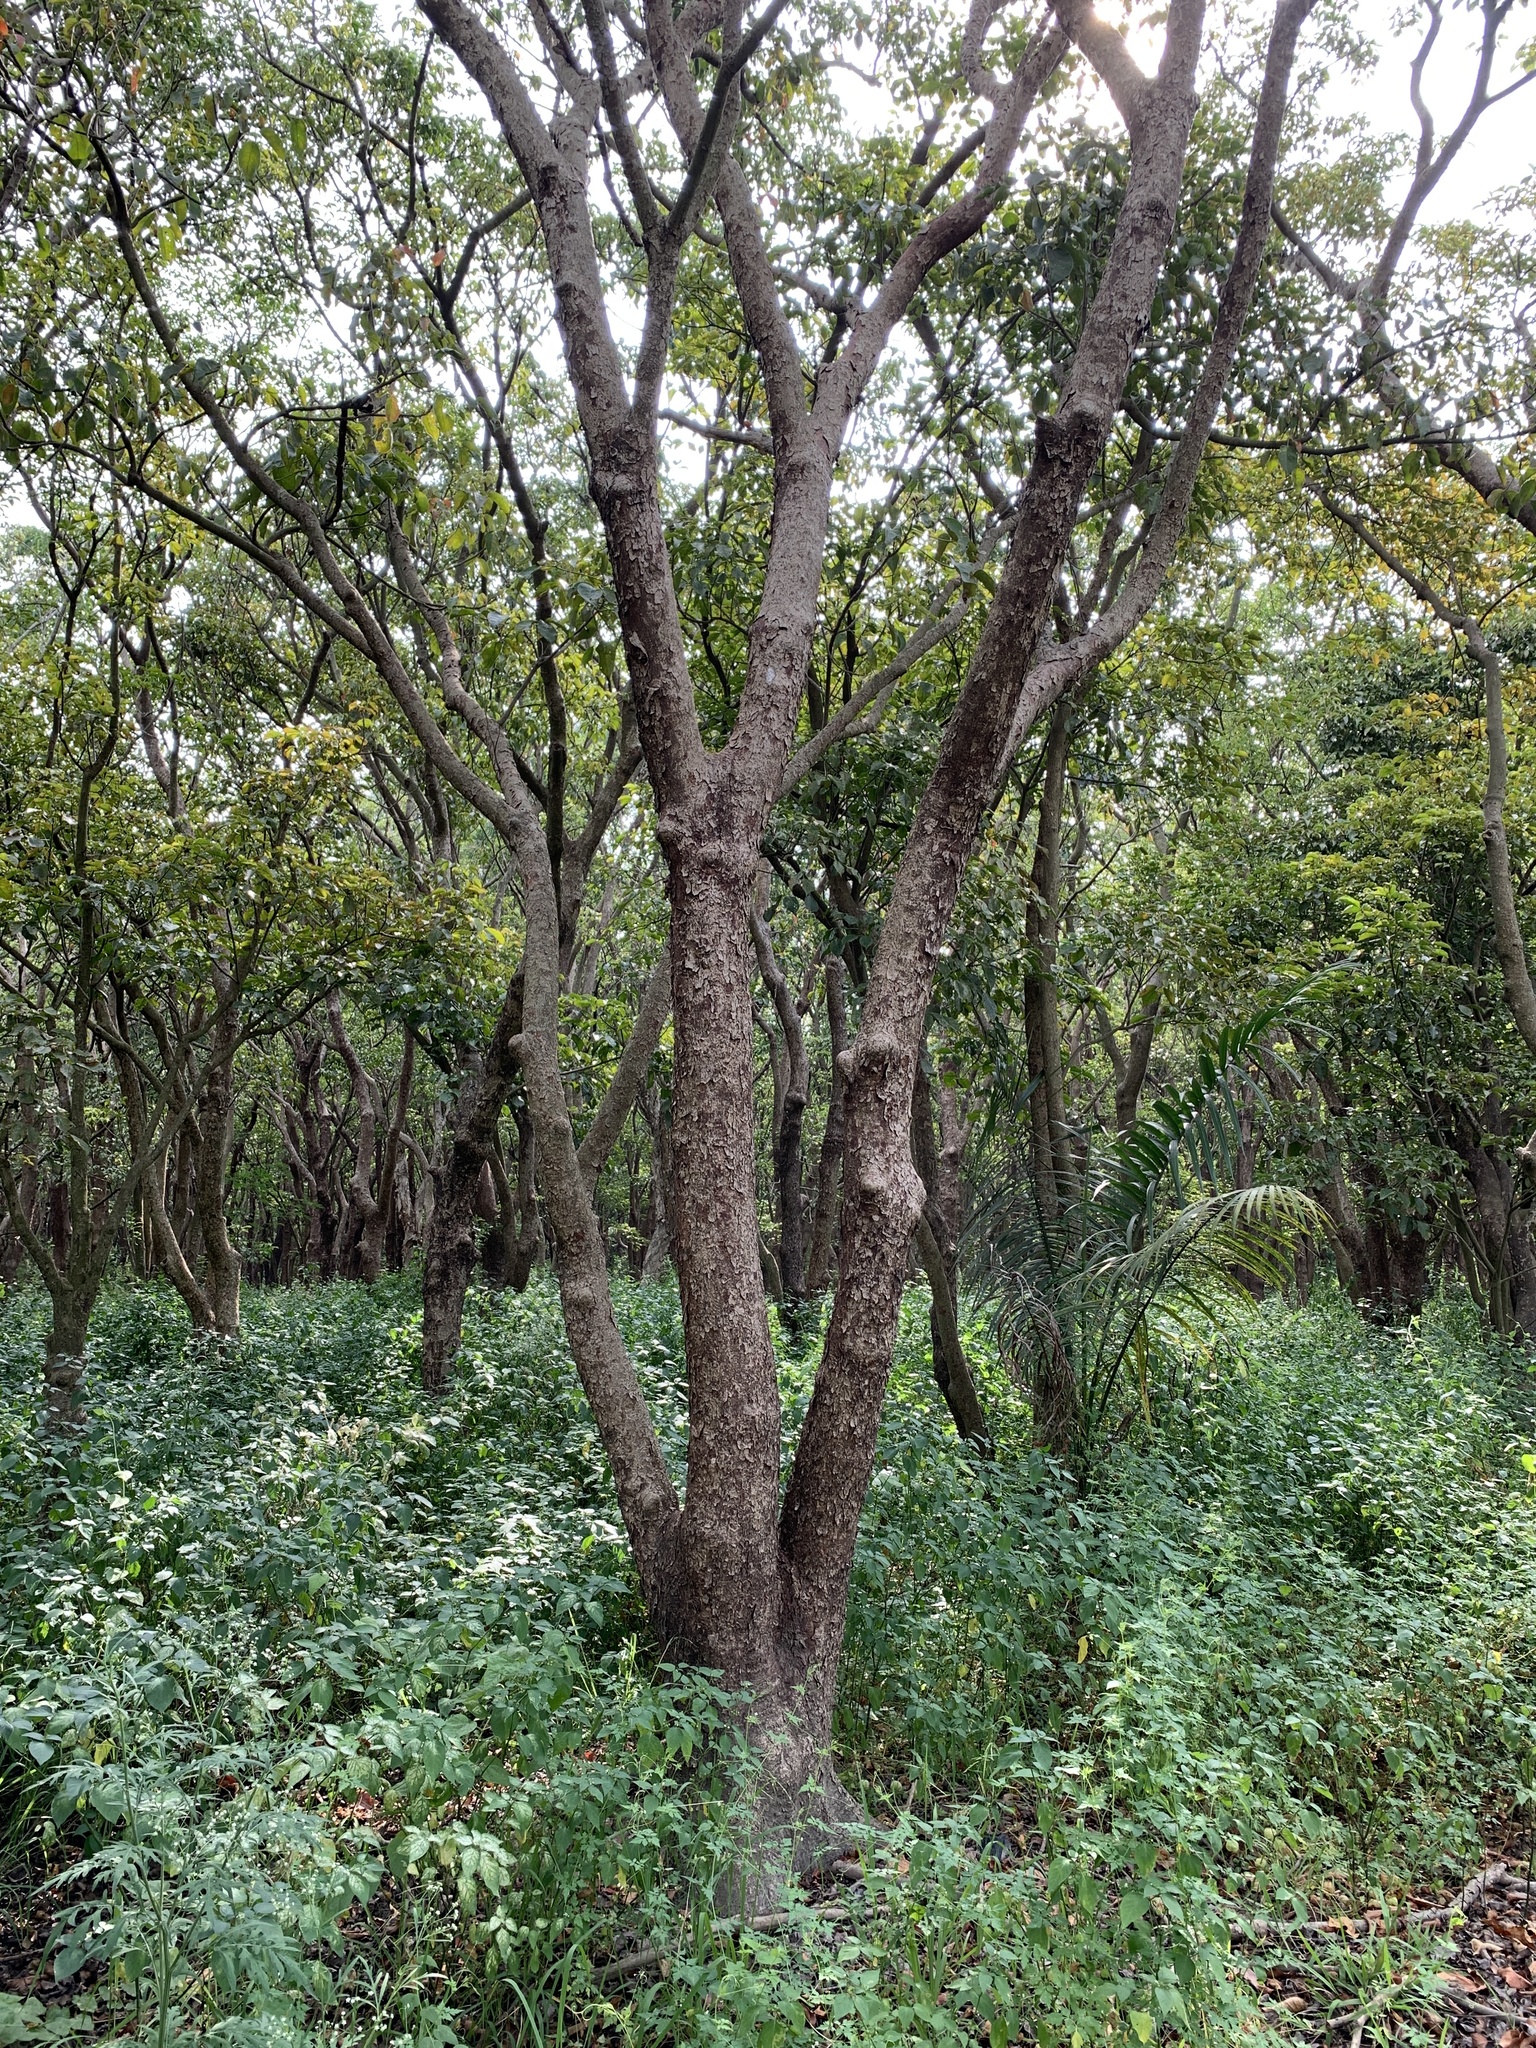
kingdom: Plantae
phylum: Tracheophyta
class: Magnoliopsida
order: Malpighiales
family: Phyllanthaceae
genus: Bischofia
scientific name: Bischofia javanica
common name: Javanese bishopwood
